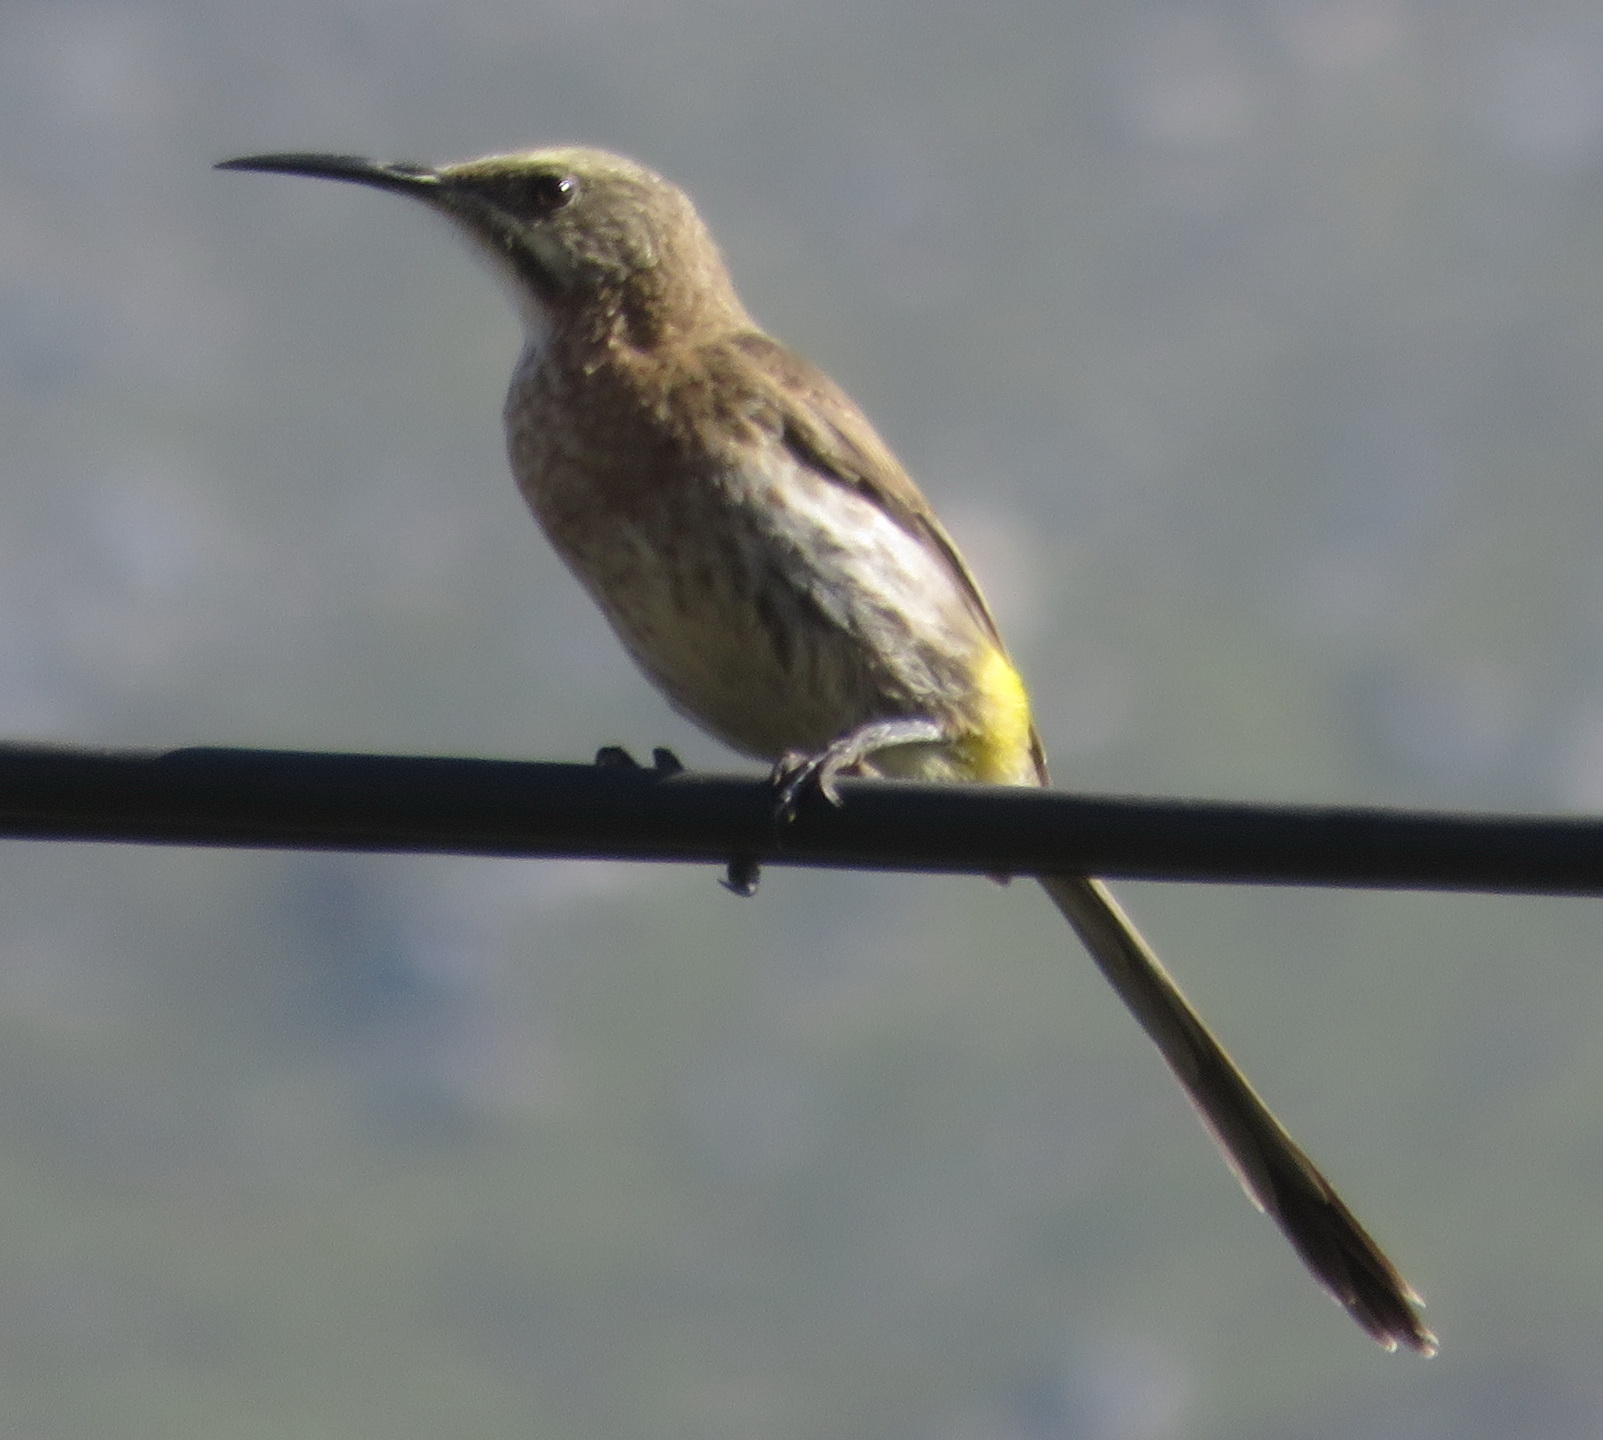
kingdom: Animalia
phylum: Chordata
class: Aves
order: Passeriformes
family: Promeropidae
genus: Promerops
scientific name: Promerops cafer
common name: Cape sugarbird
